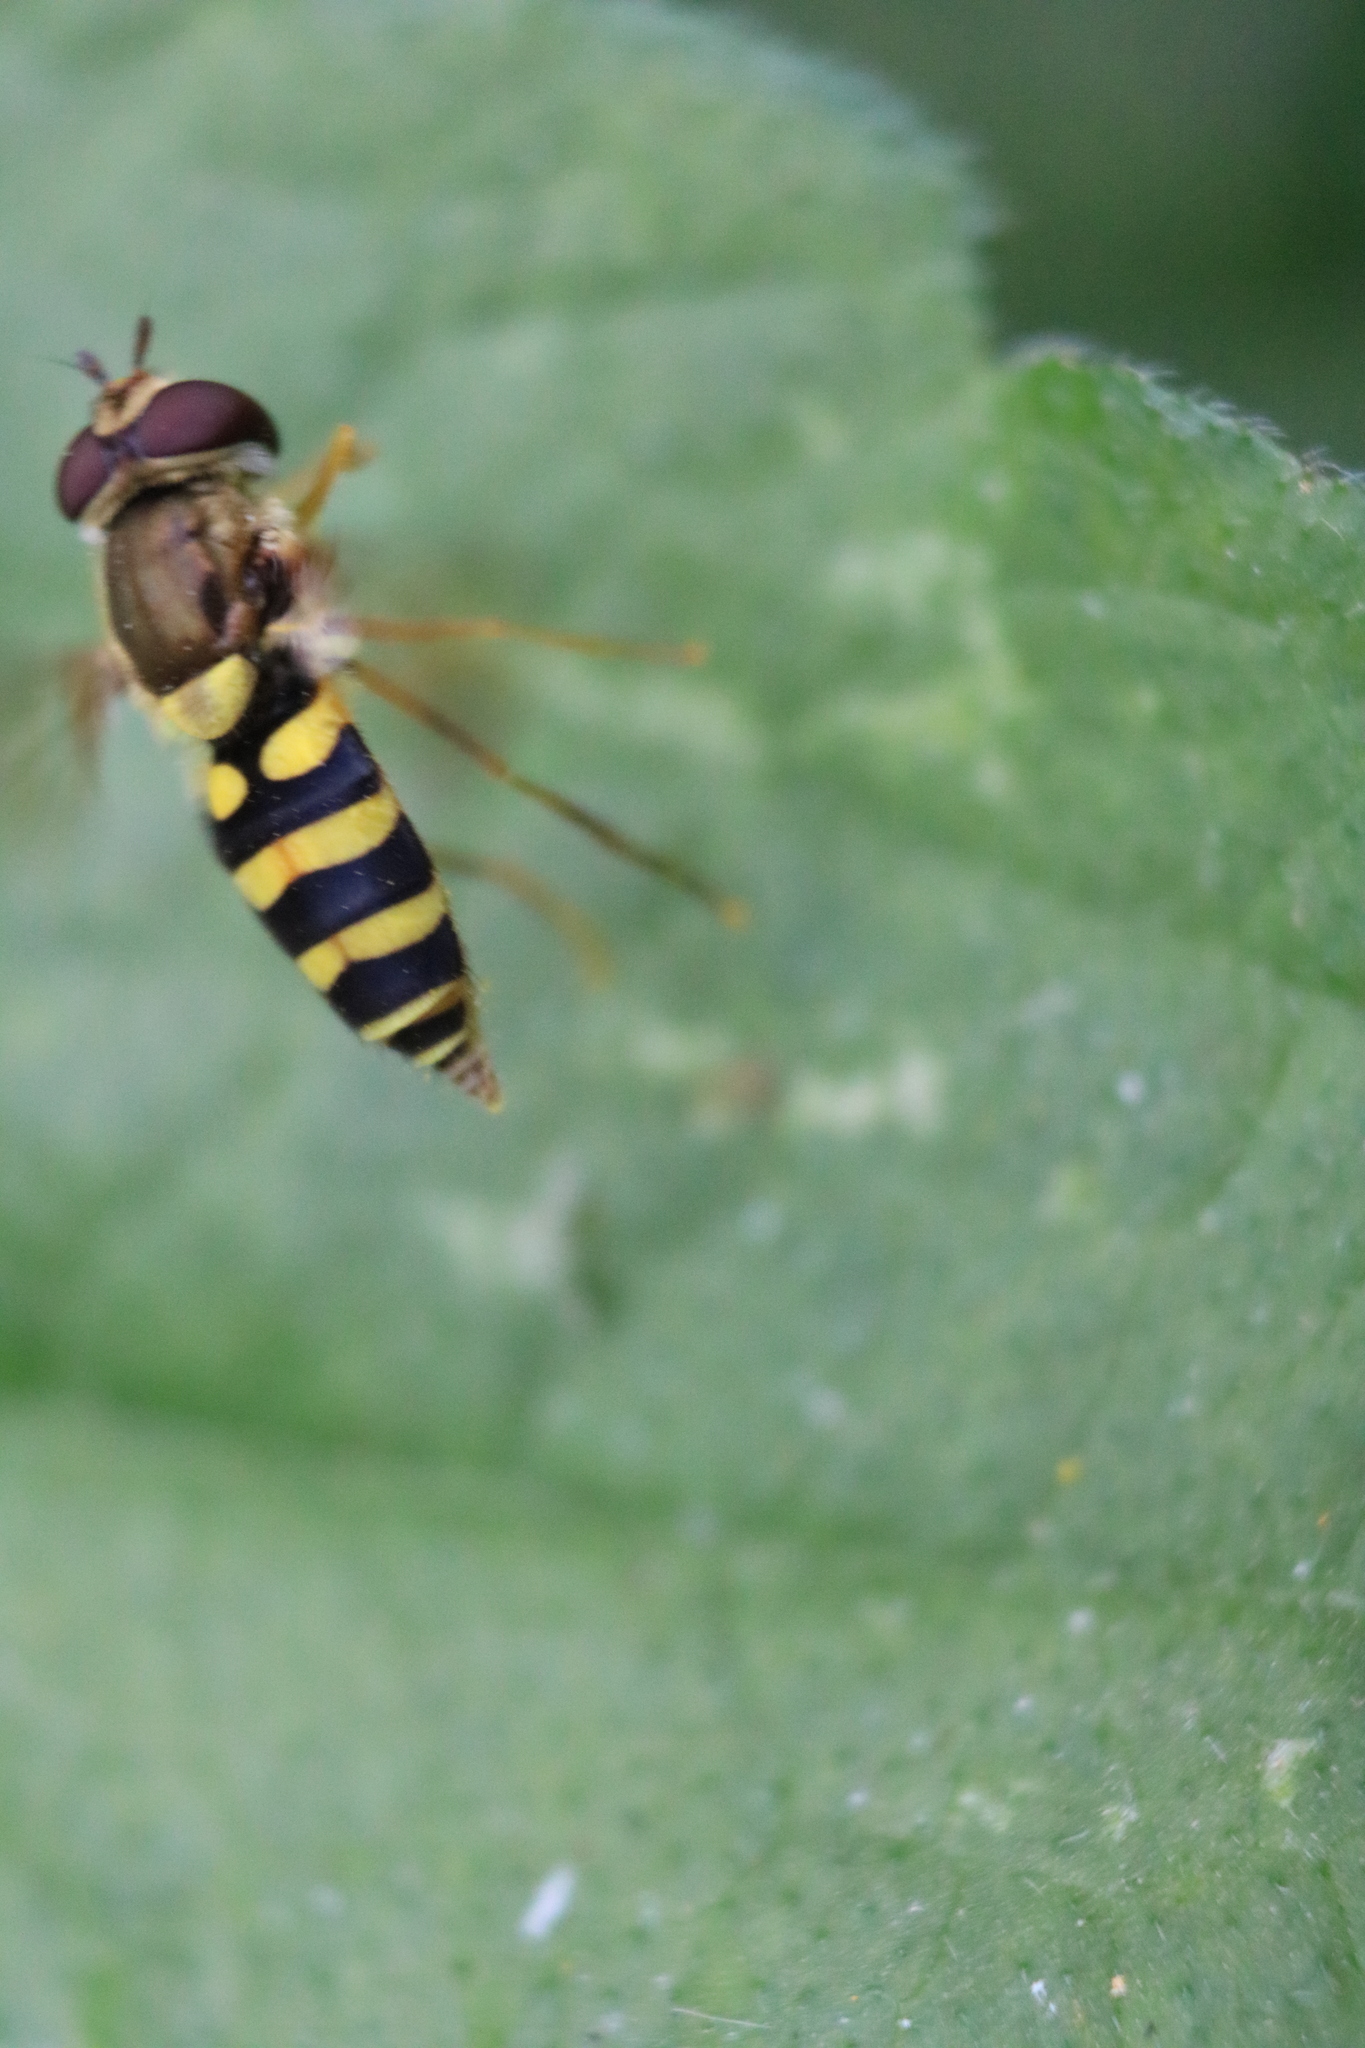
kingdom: Animalia
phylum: Arthropoda
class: Insecta
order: Diptera
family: Syrphidae
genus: Syrphus
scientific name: Syrphus rectus
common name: Yellow-legged flower fly
